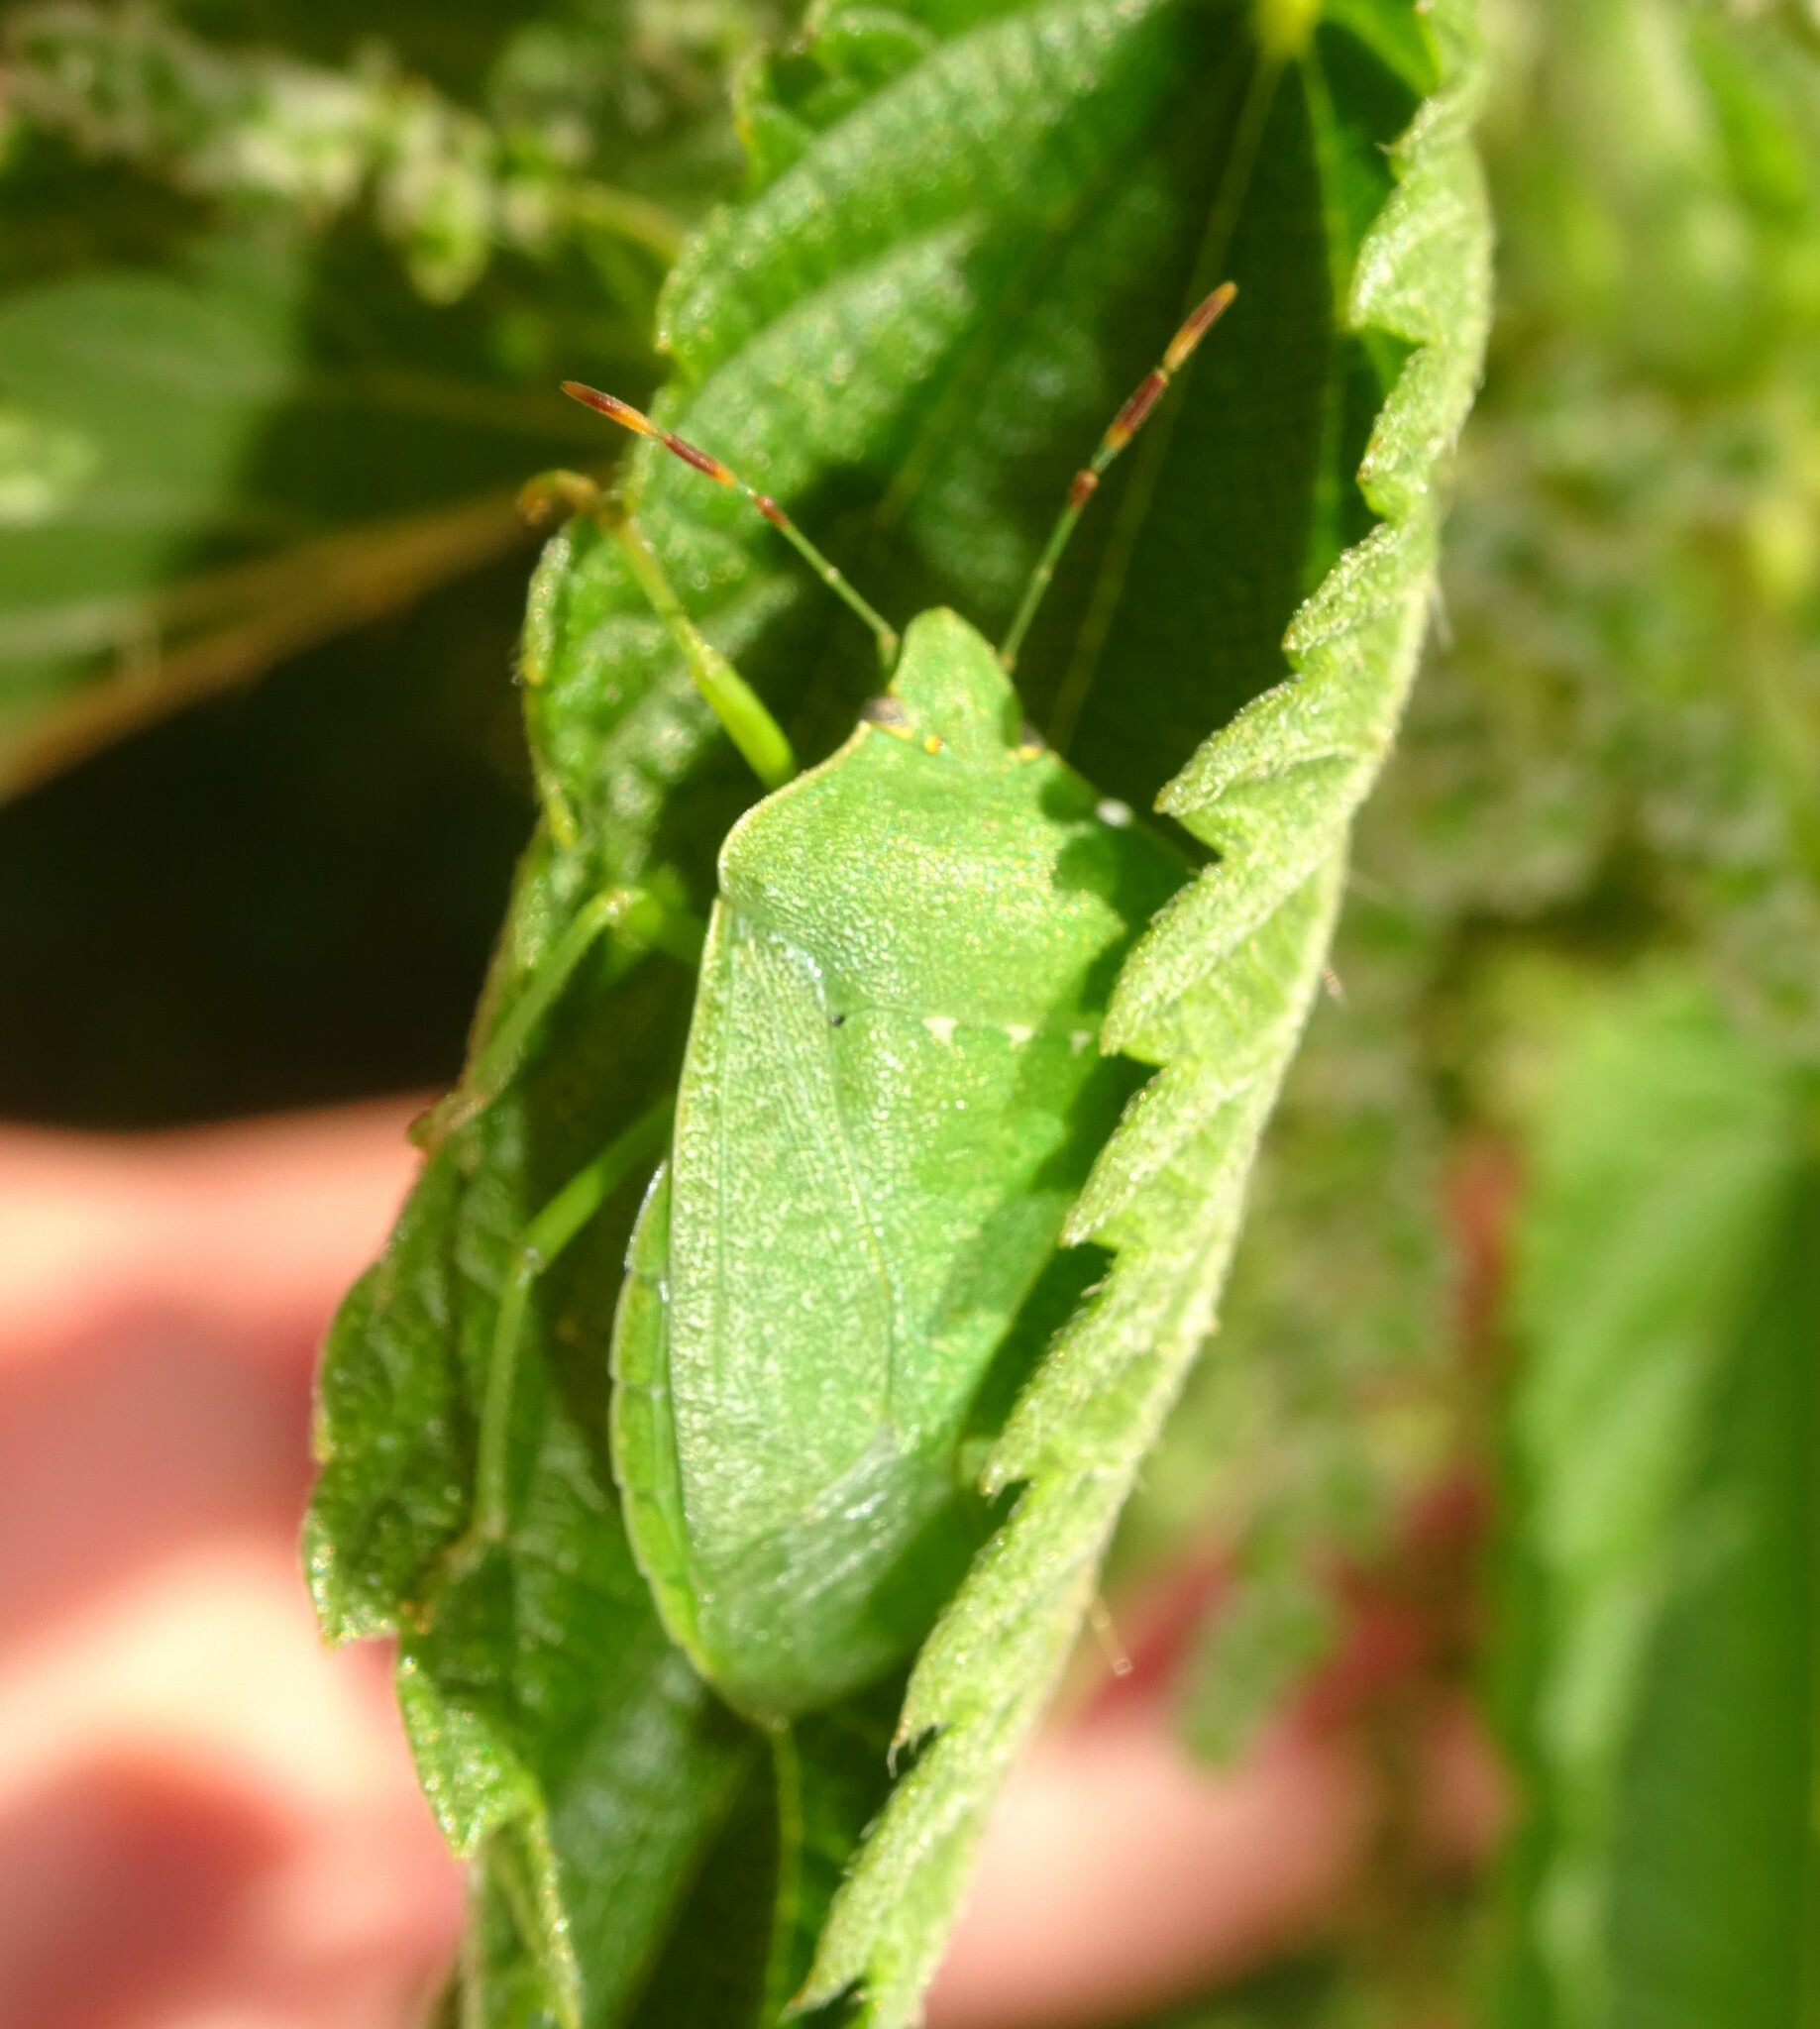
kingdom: Animalia
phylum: Arthropoda
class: Insecta
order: Hemiptera
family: Pentatomidae
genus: Nezara
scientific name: Nezara viridula
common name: Southern green stink bug
